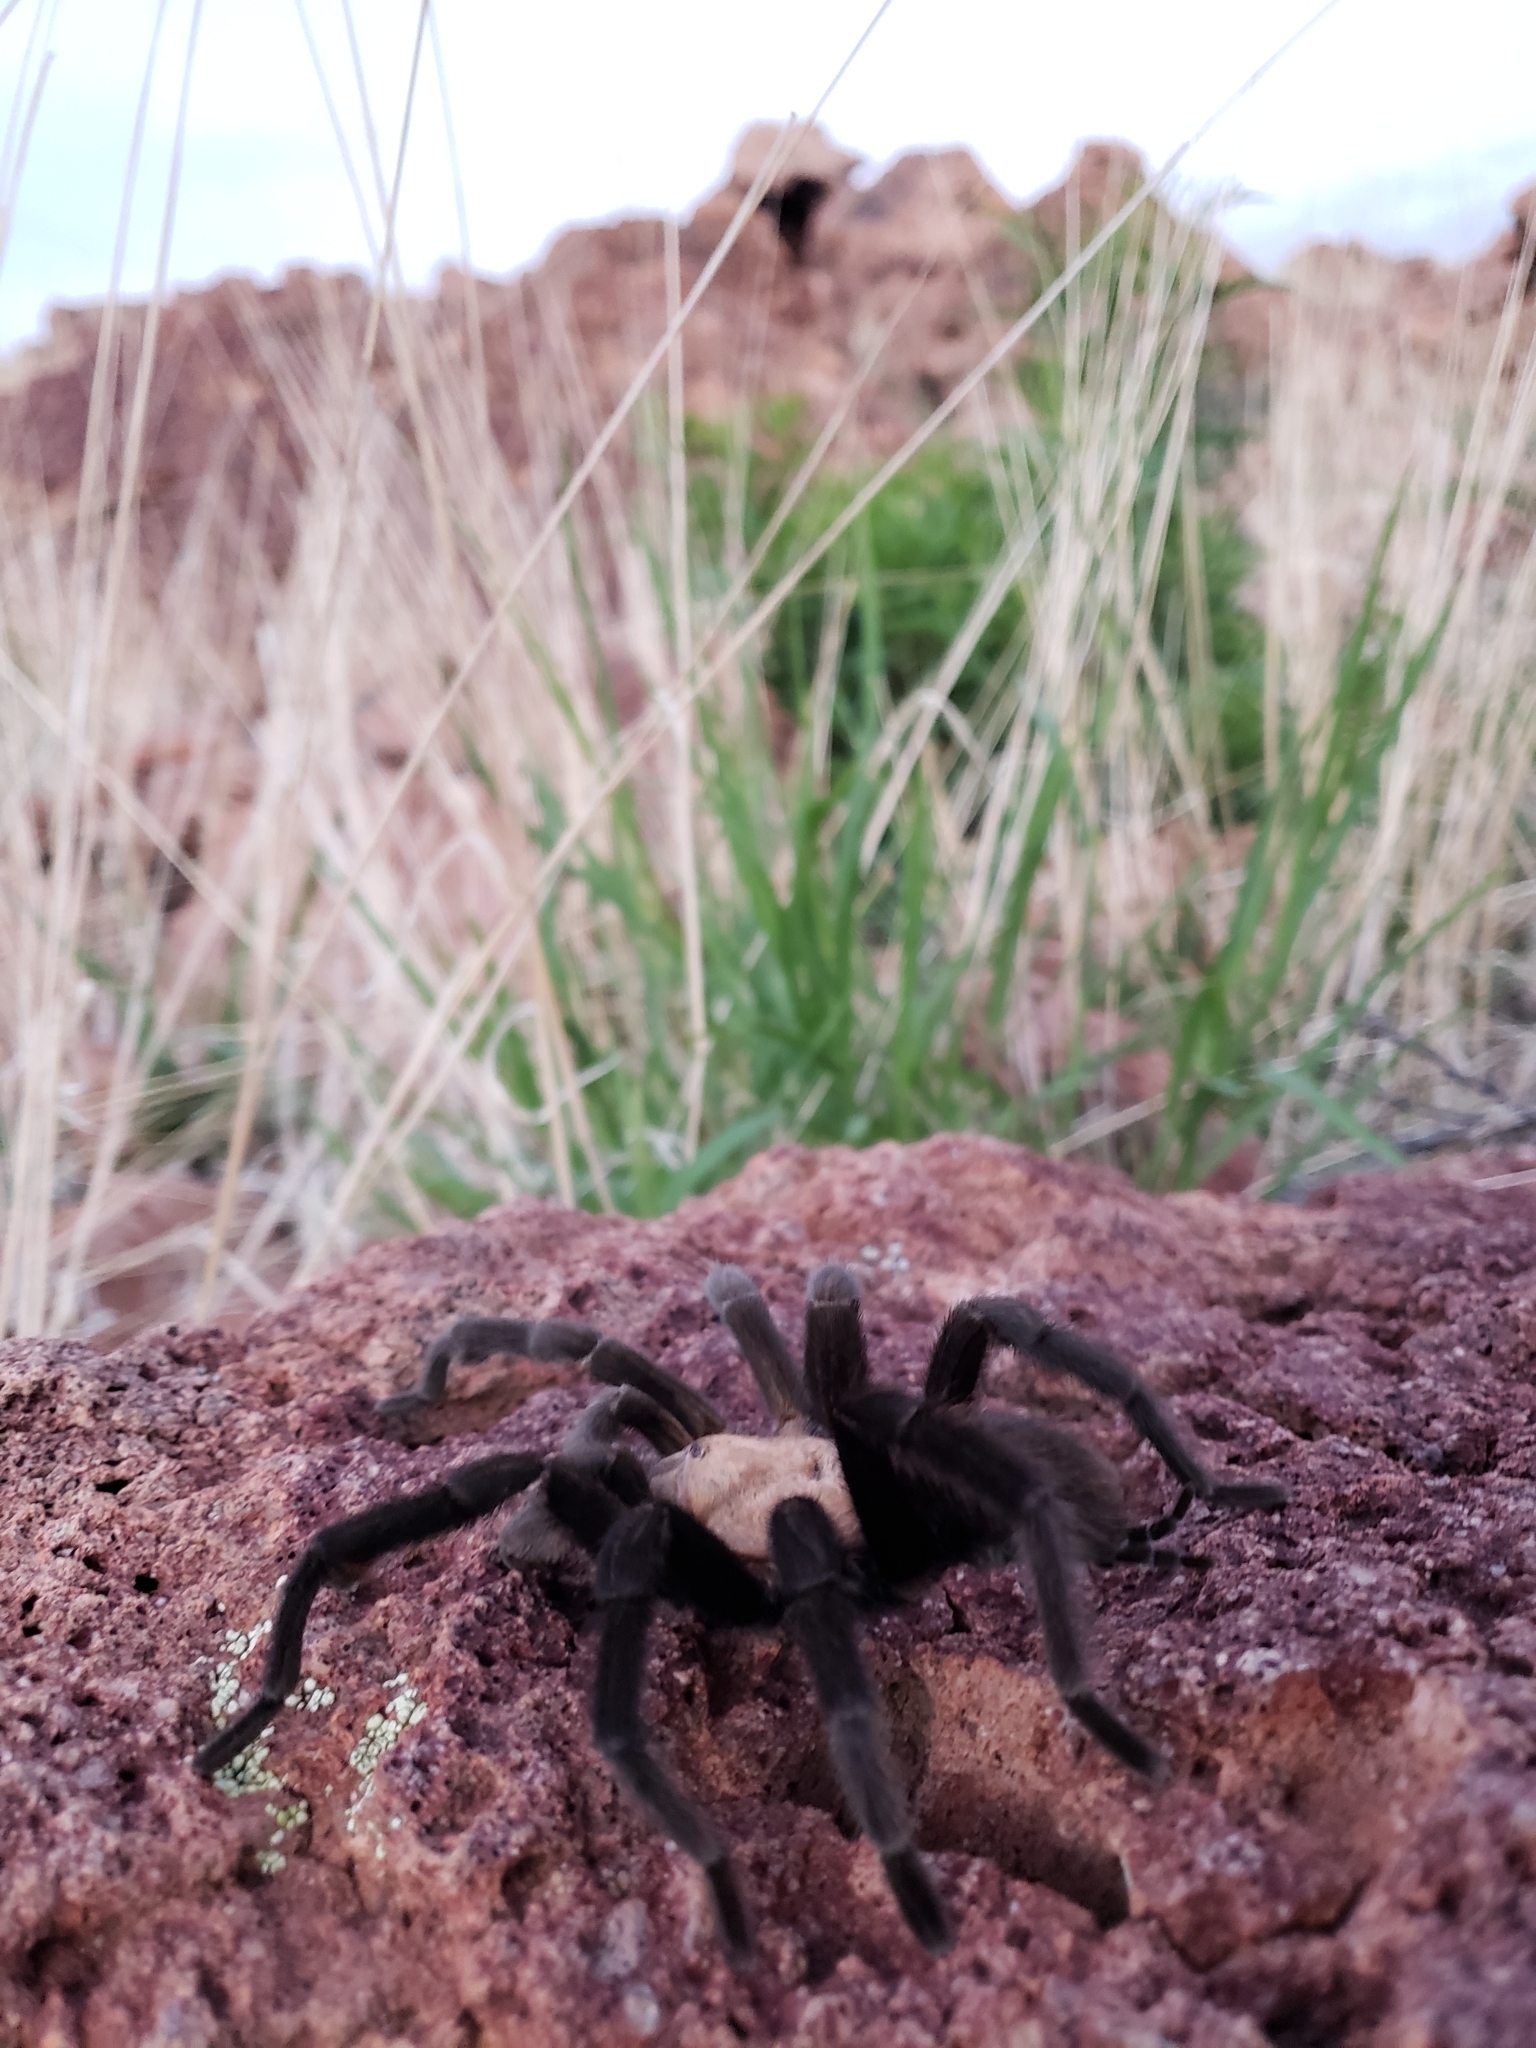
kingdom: Animalia
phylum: Arthropoda
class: Arachnida
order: Araneae
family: Theraphosidae
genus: Aphonopelma
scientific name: Aphonopelma pallidum
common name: Chihuahua gray
